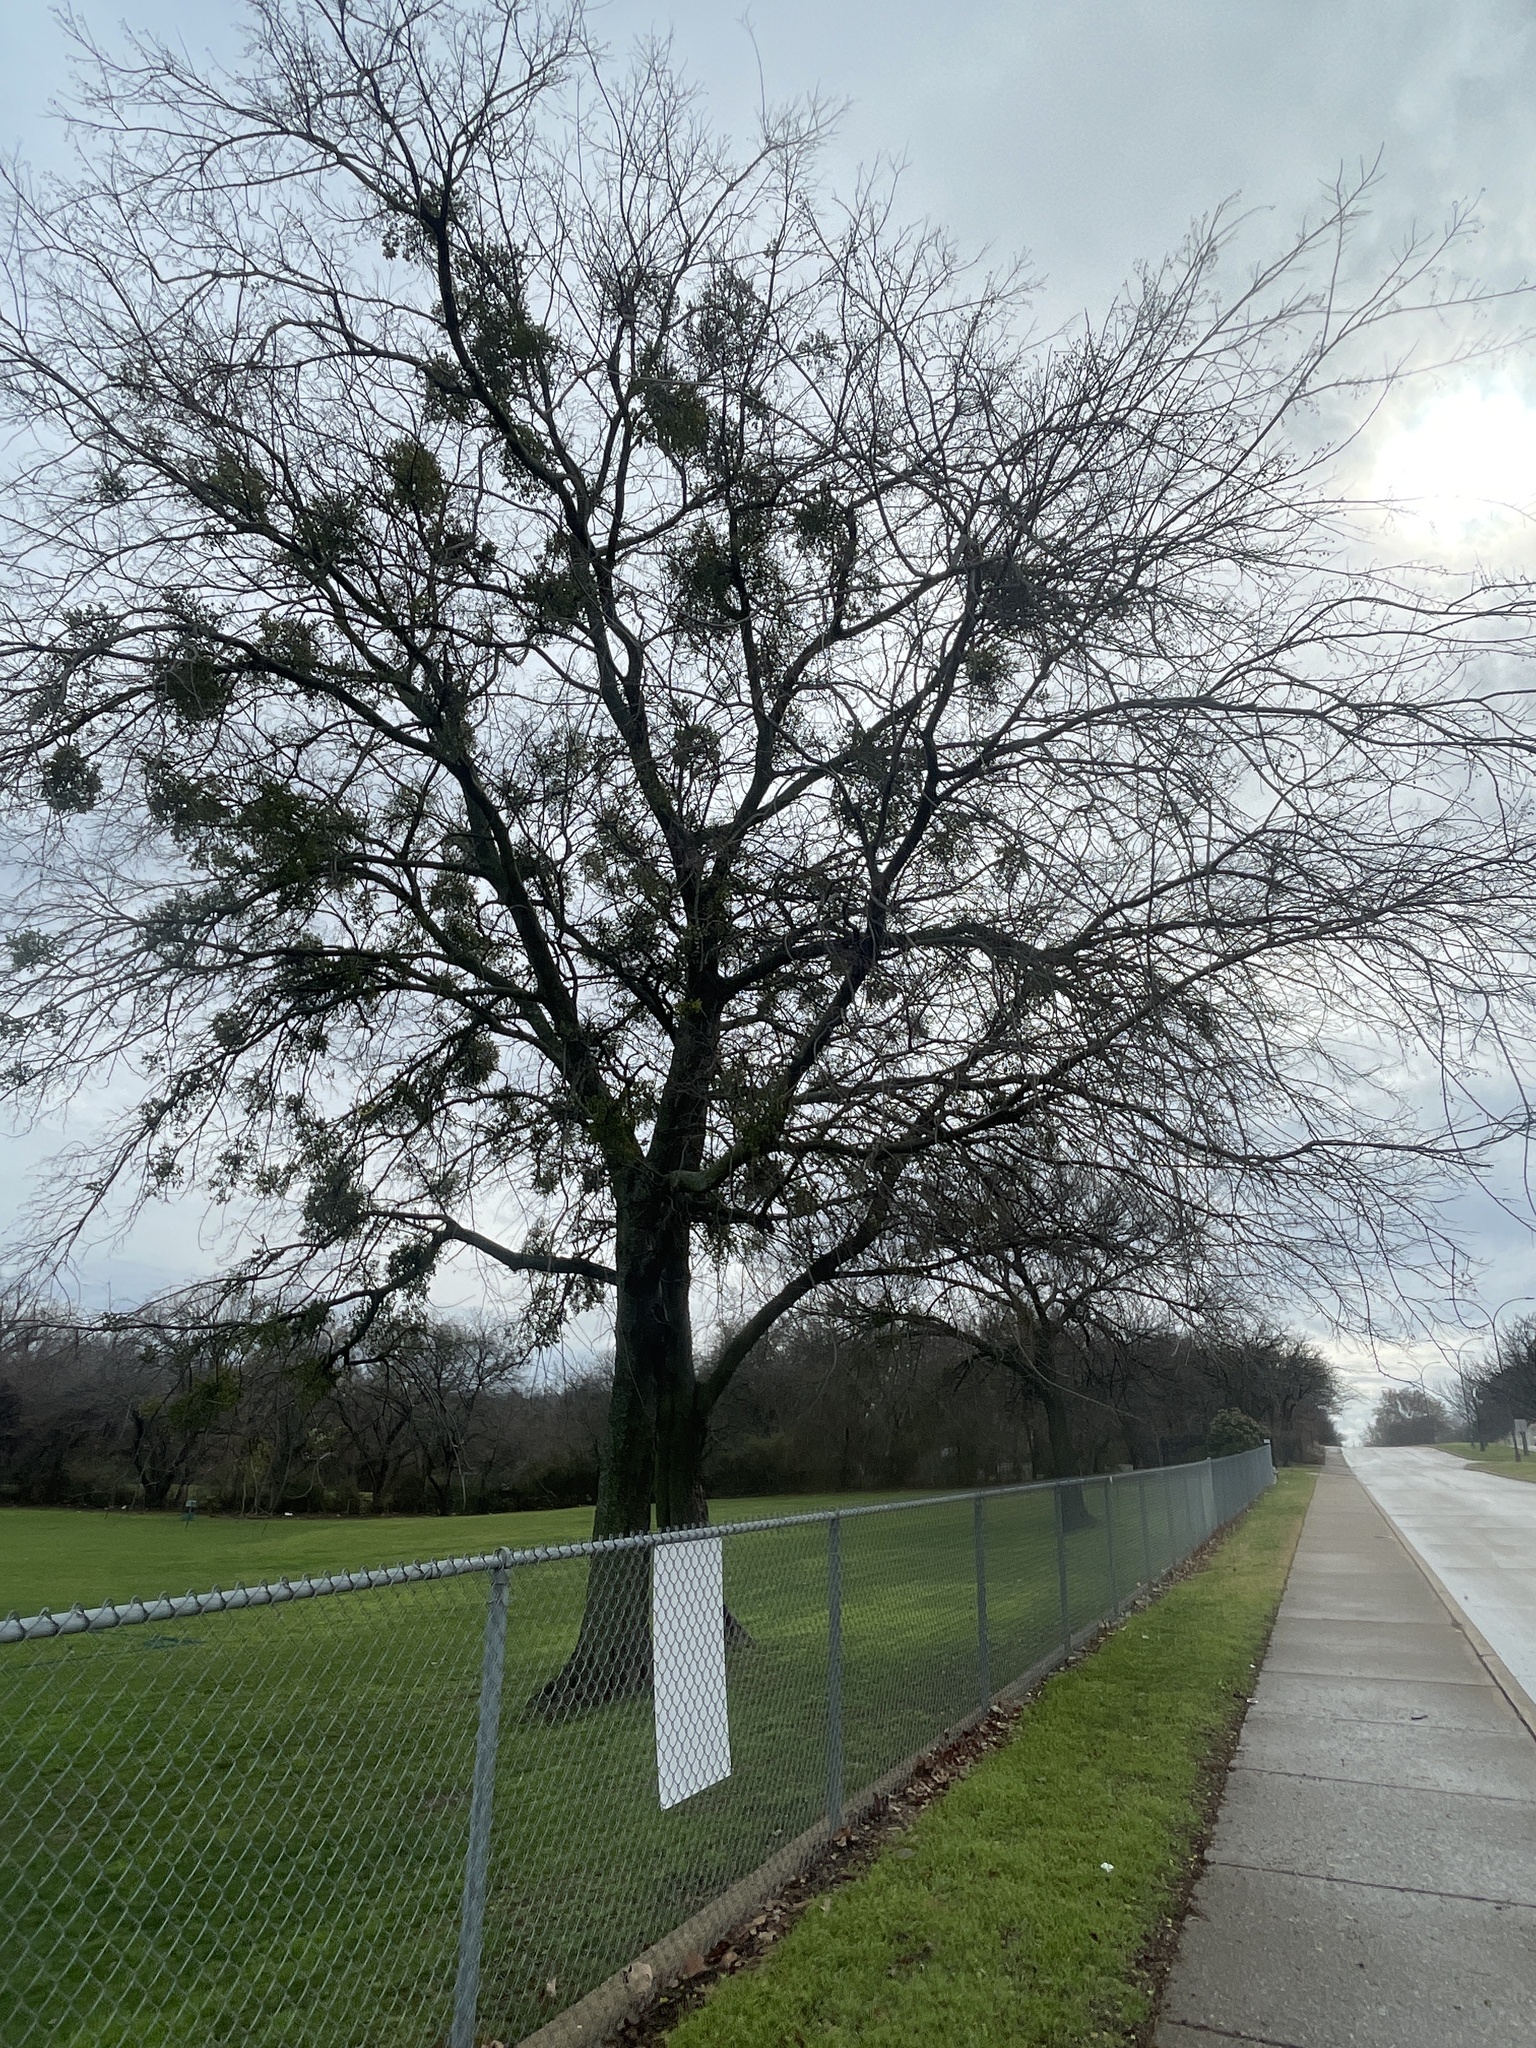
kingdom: Plantae
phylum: Tracheophyta
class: Magnoliopsida
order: Rosales
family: Cannabaceae
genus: Celtis
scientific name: Celtis laevigata
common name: Sugarberry
